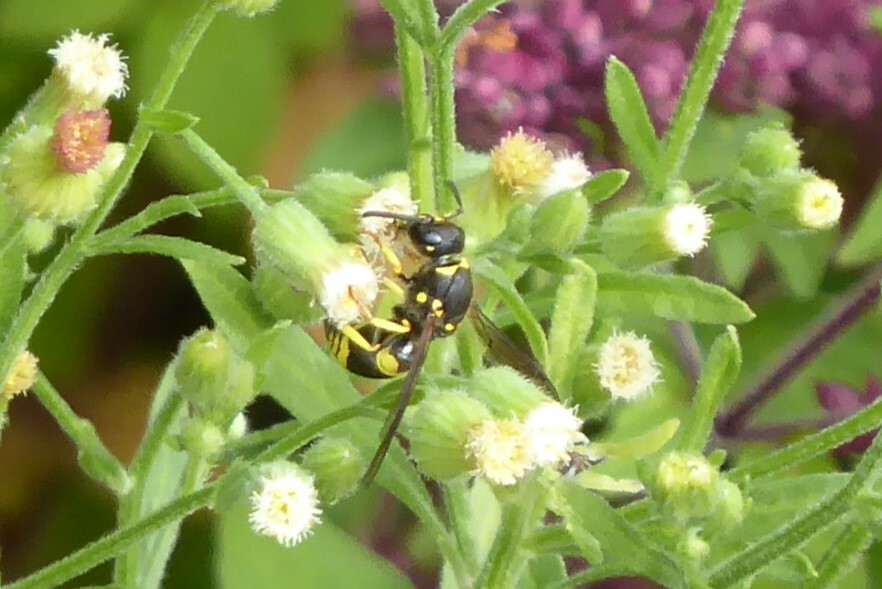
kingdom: Animalia
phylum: Arthropoda
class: Insecta
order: Hymenoptera
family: Vespidae
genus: Ancistrocerus
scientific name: Ancistrocerus gazella
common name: European tube wasp
